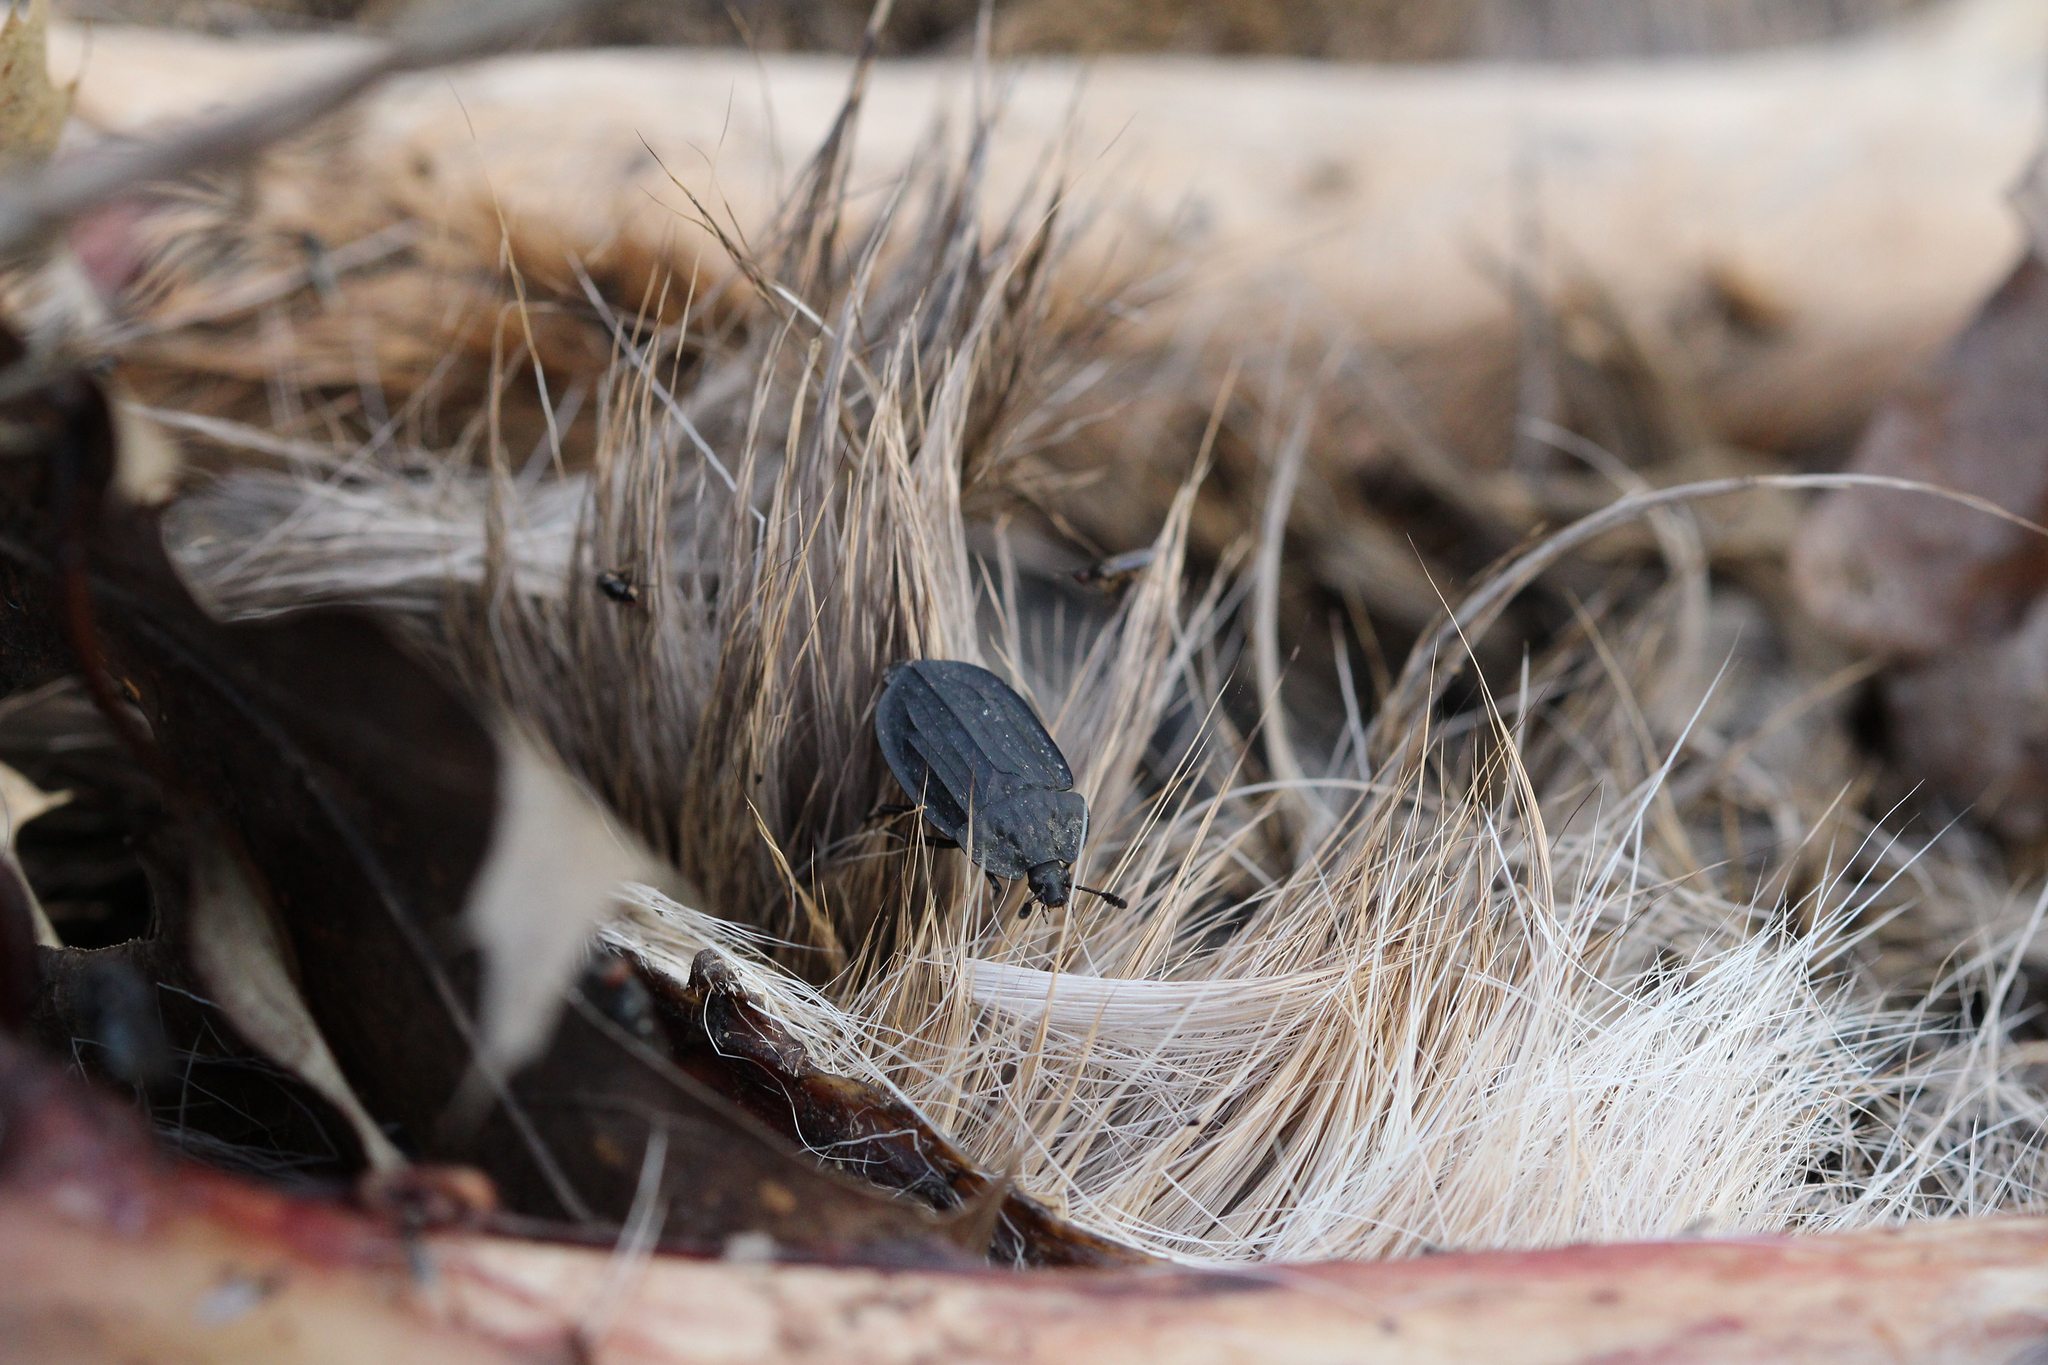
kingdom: Animalia
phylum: Arthropoda
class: Insecta
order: Coleoptera
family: Staphylinidae
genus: Oiceoptoma
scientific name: Oiceoptoma inaequale
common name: Ridged carrion beetle
